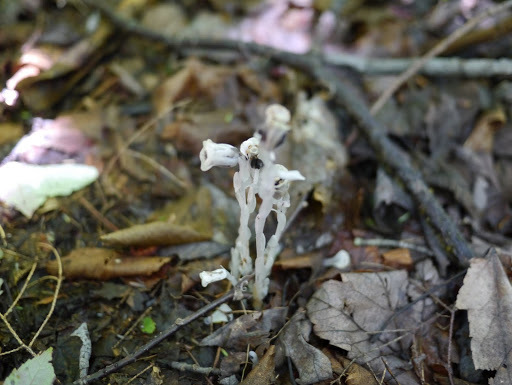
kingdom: Plantae
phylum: Tracheophyta
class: Magnoliopsida
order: Ericales
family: Ericaceae
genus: Monotropa
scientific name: Monotropa uniflora
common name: Convulsion root
